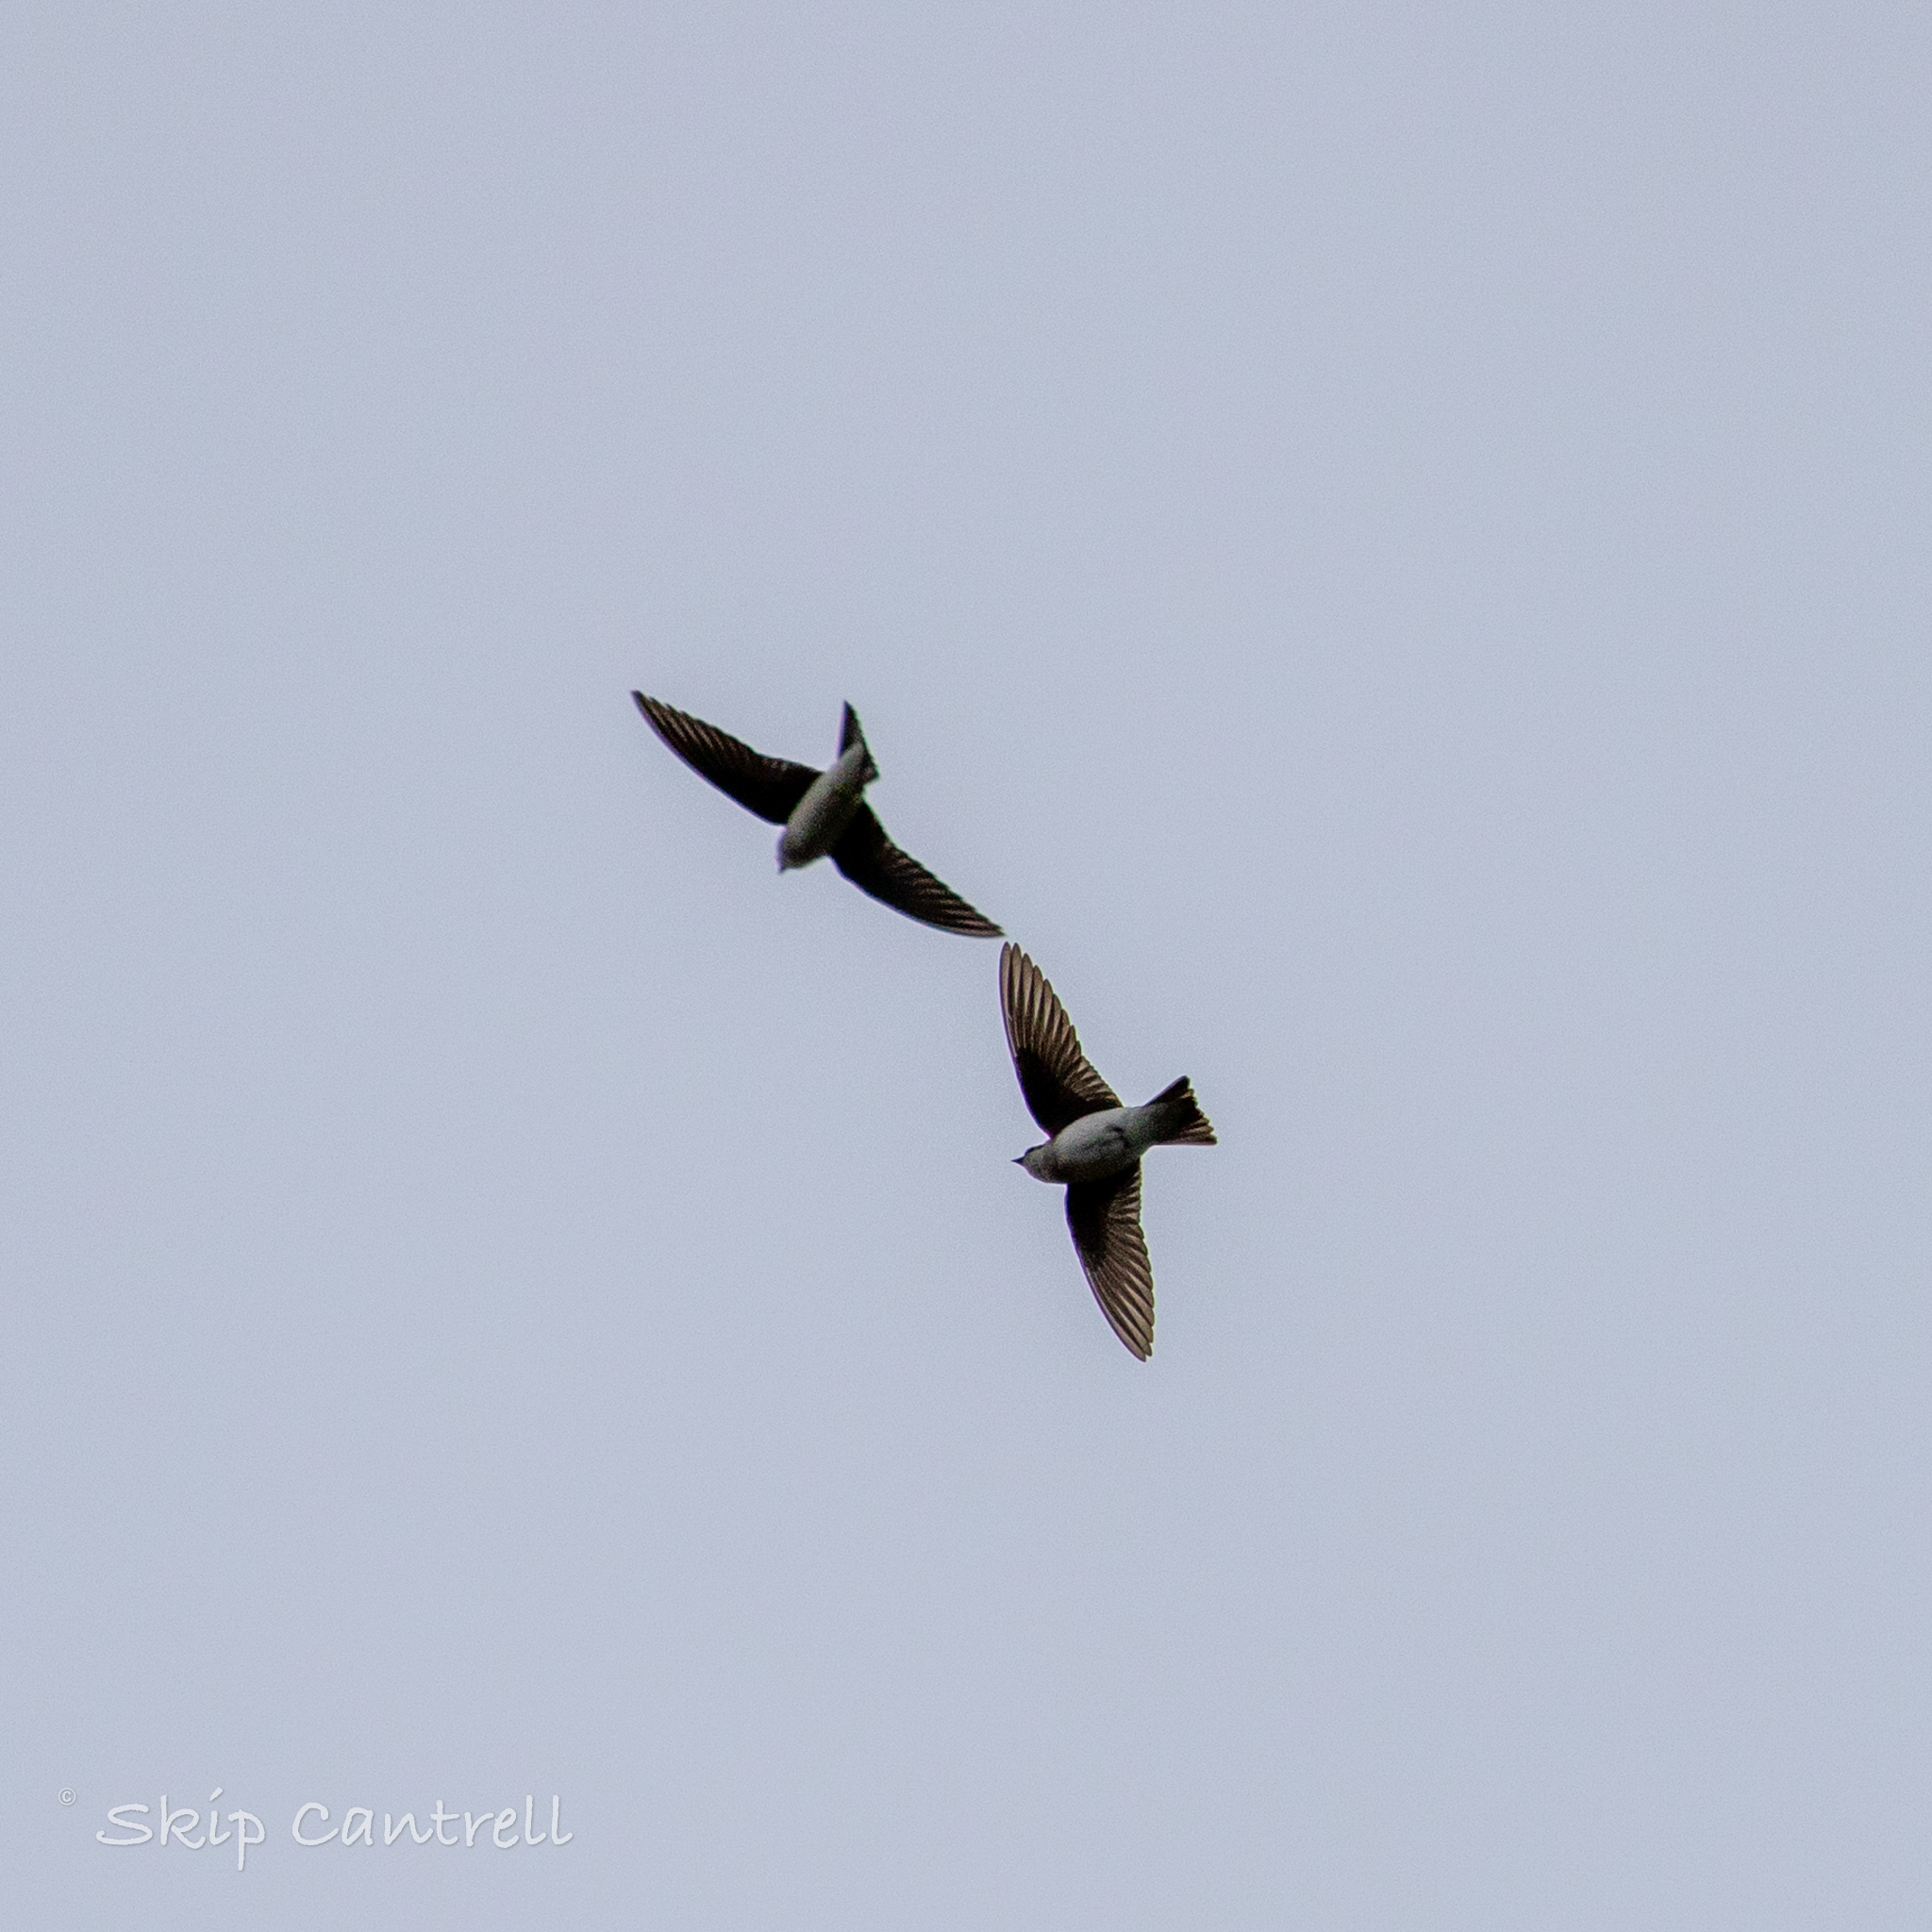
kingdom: Animalia
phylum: Chordata
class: Aves
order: Passeriformes
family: Hirundinidae
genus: Tachycineta
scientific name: Tachycineta bicolor
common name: Tree swallow
